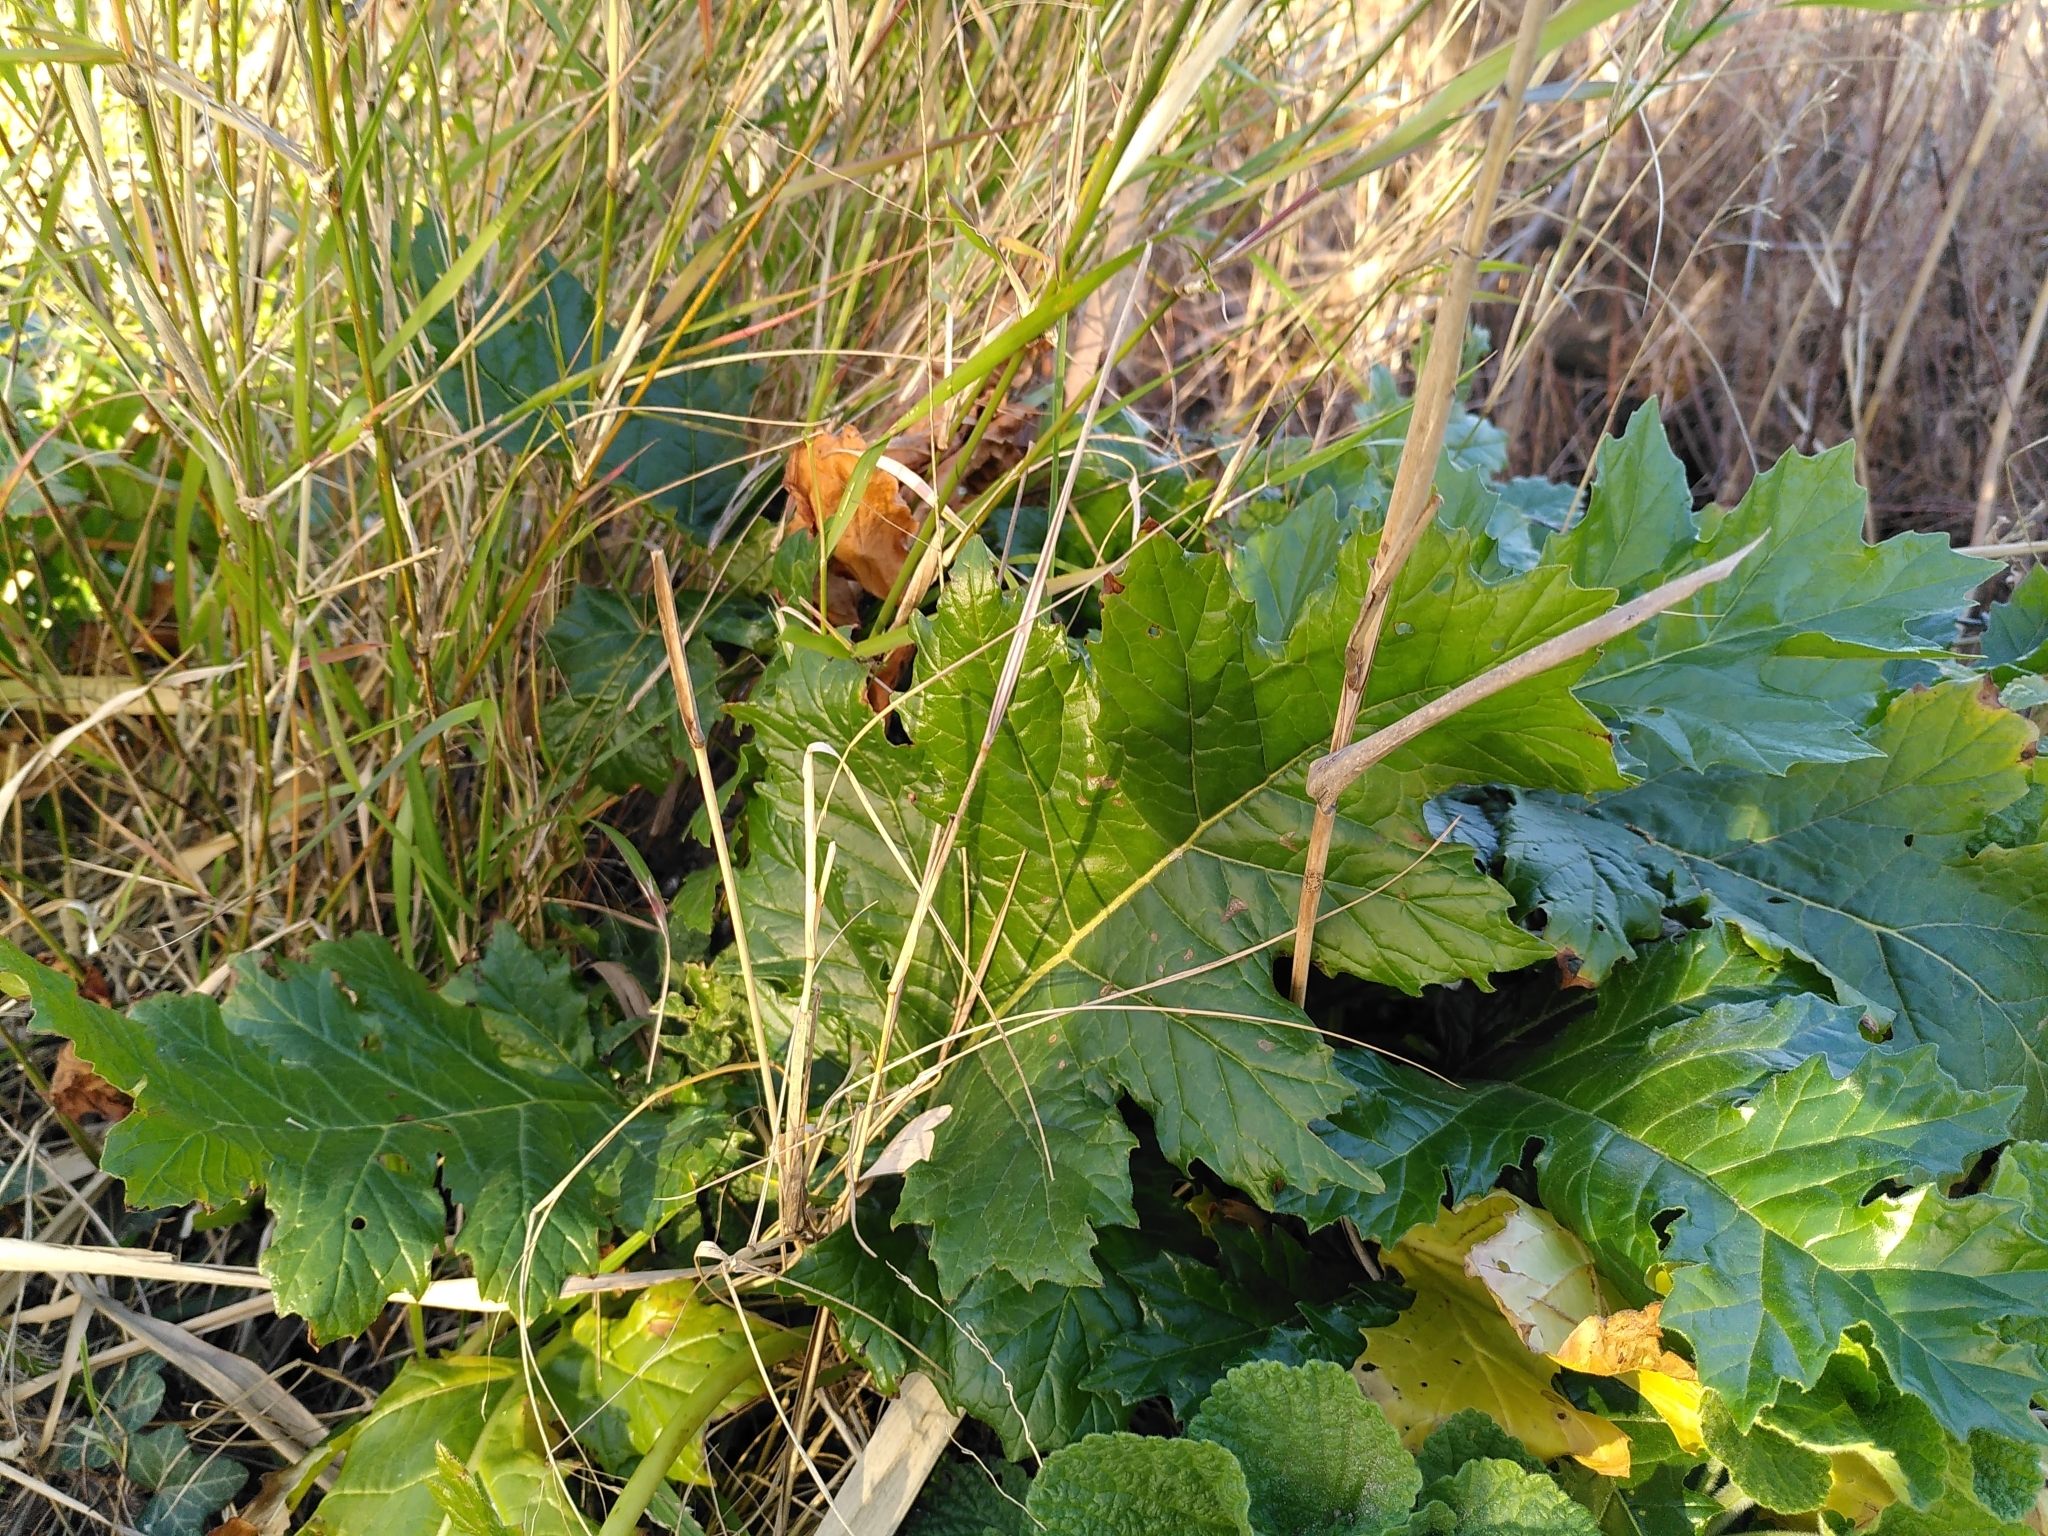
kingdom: Plantae
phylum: Tracheophyta
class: Magnoliopsida
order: Lamiales
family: Acanthaceae
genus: Acanthus
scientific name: Acanthus mollis
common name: Bear's-breech
